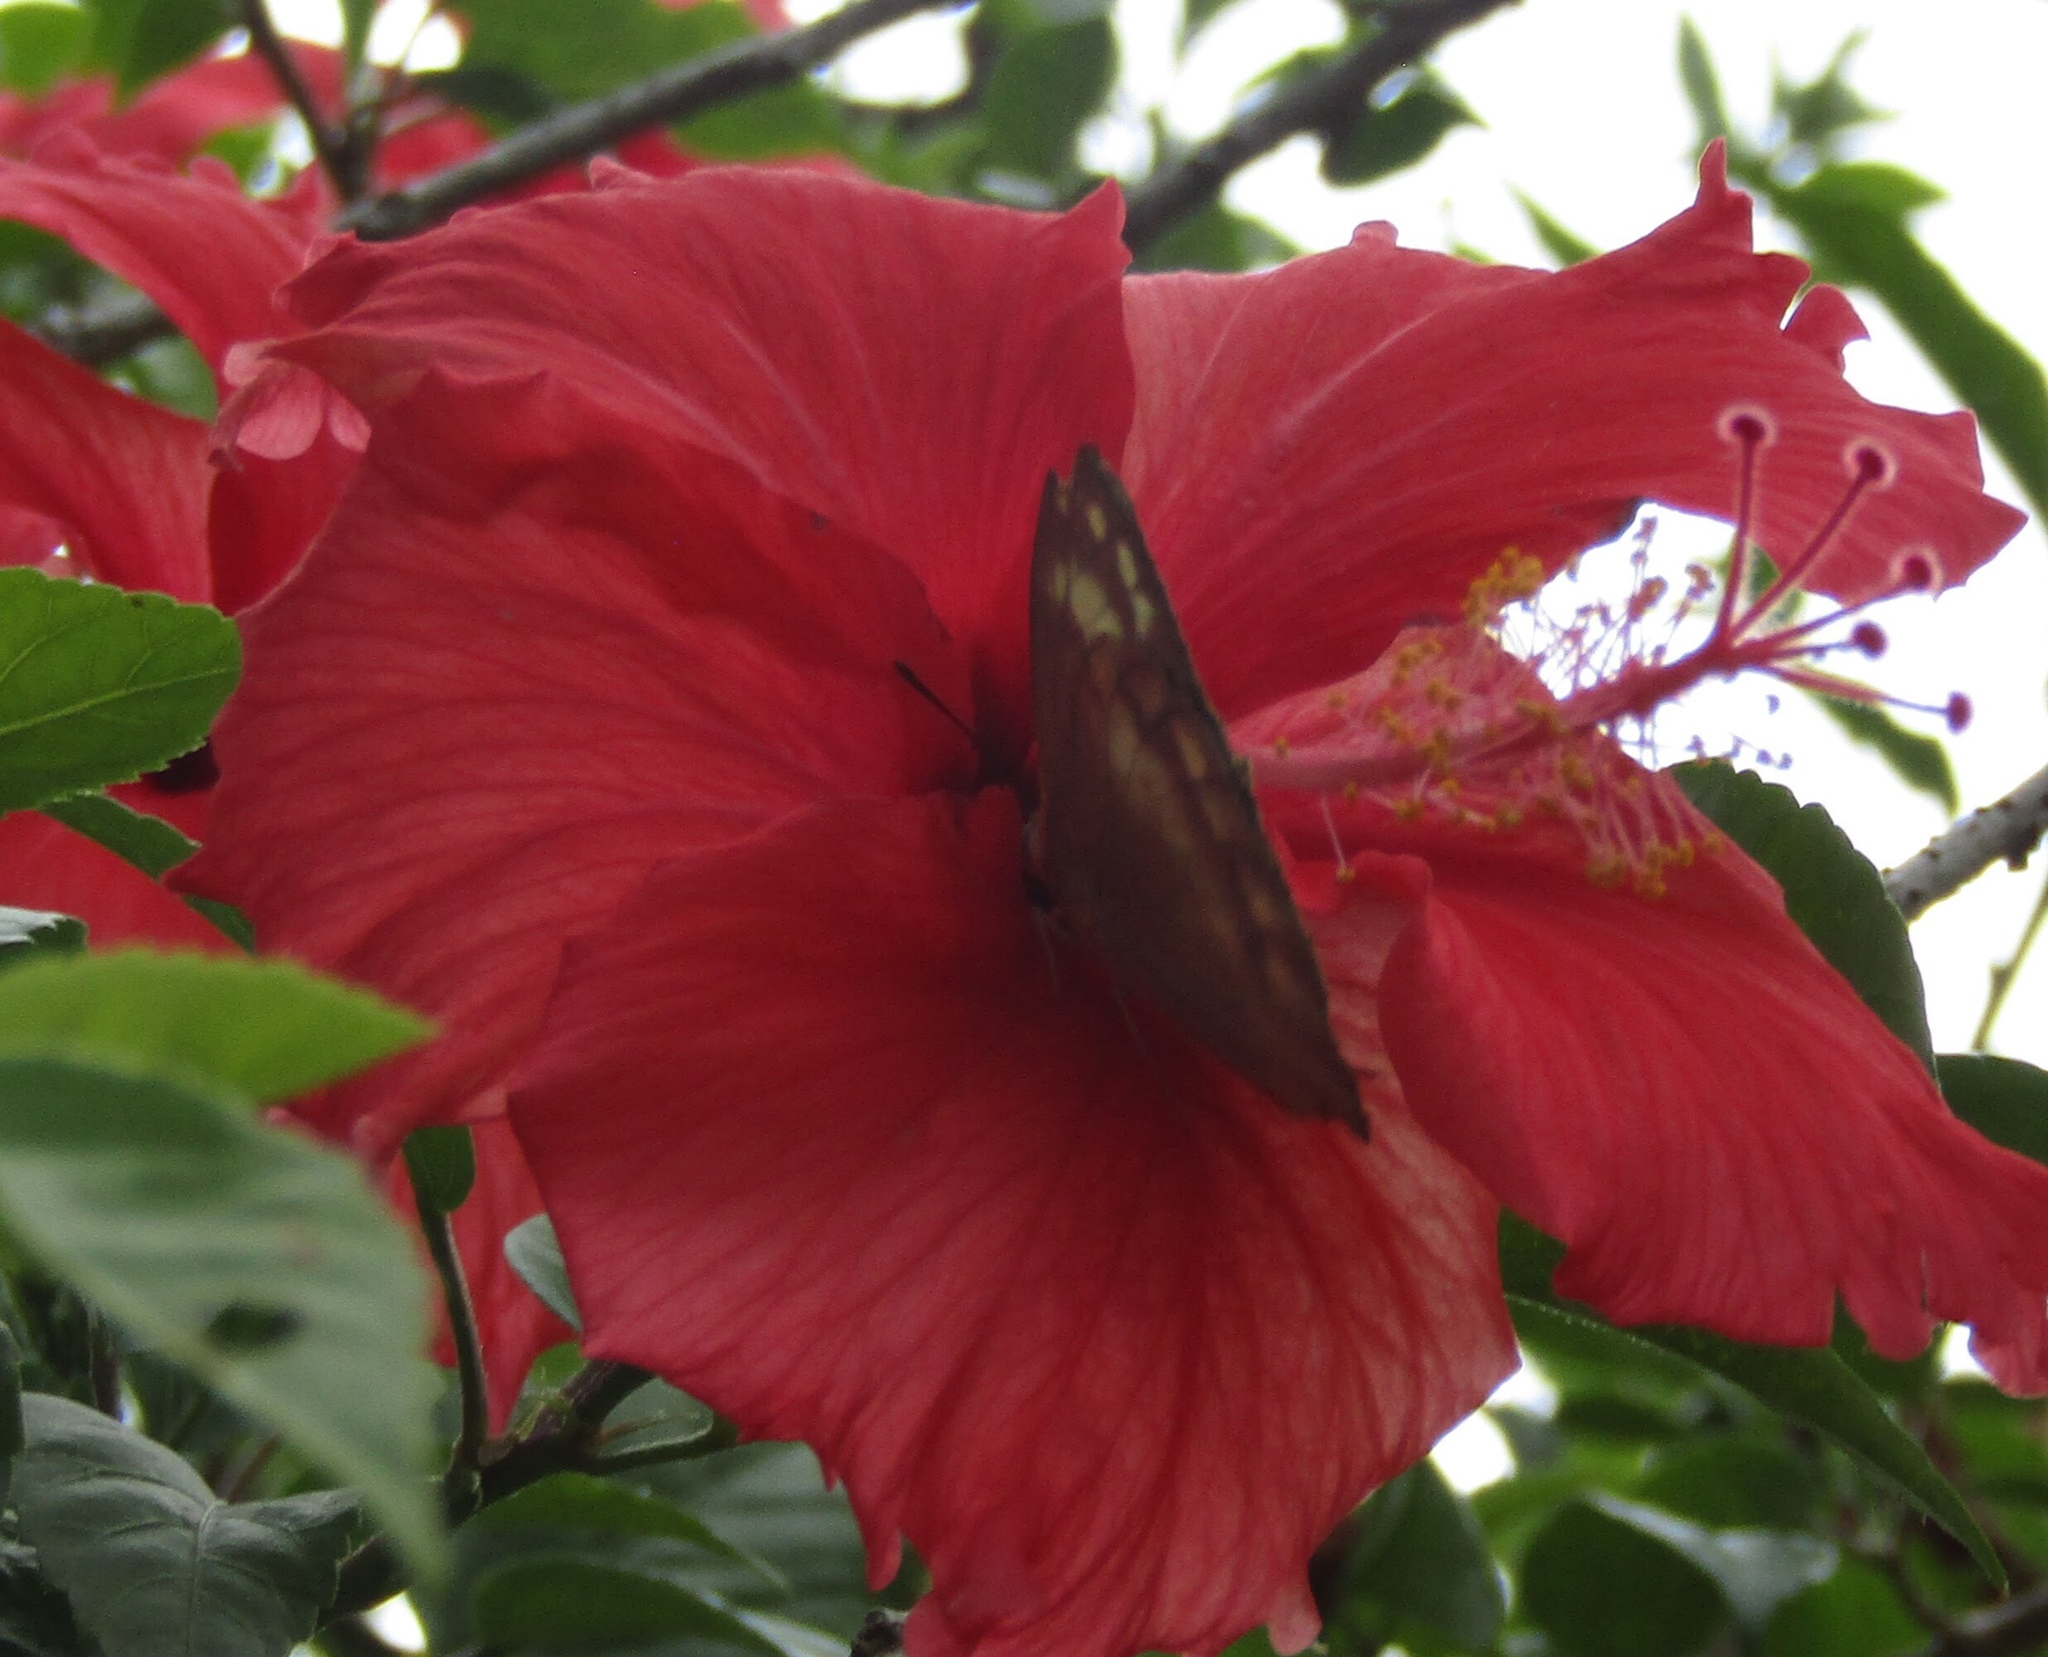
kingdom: Animalia
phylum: Arthropoda
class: Insecta
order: Lepidoptera
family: Pieridae
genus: Catopsilia
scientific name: Catopsilia pomona
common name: Common emigrant
